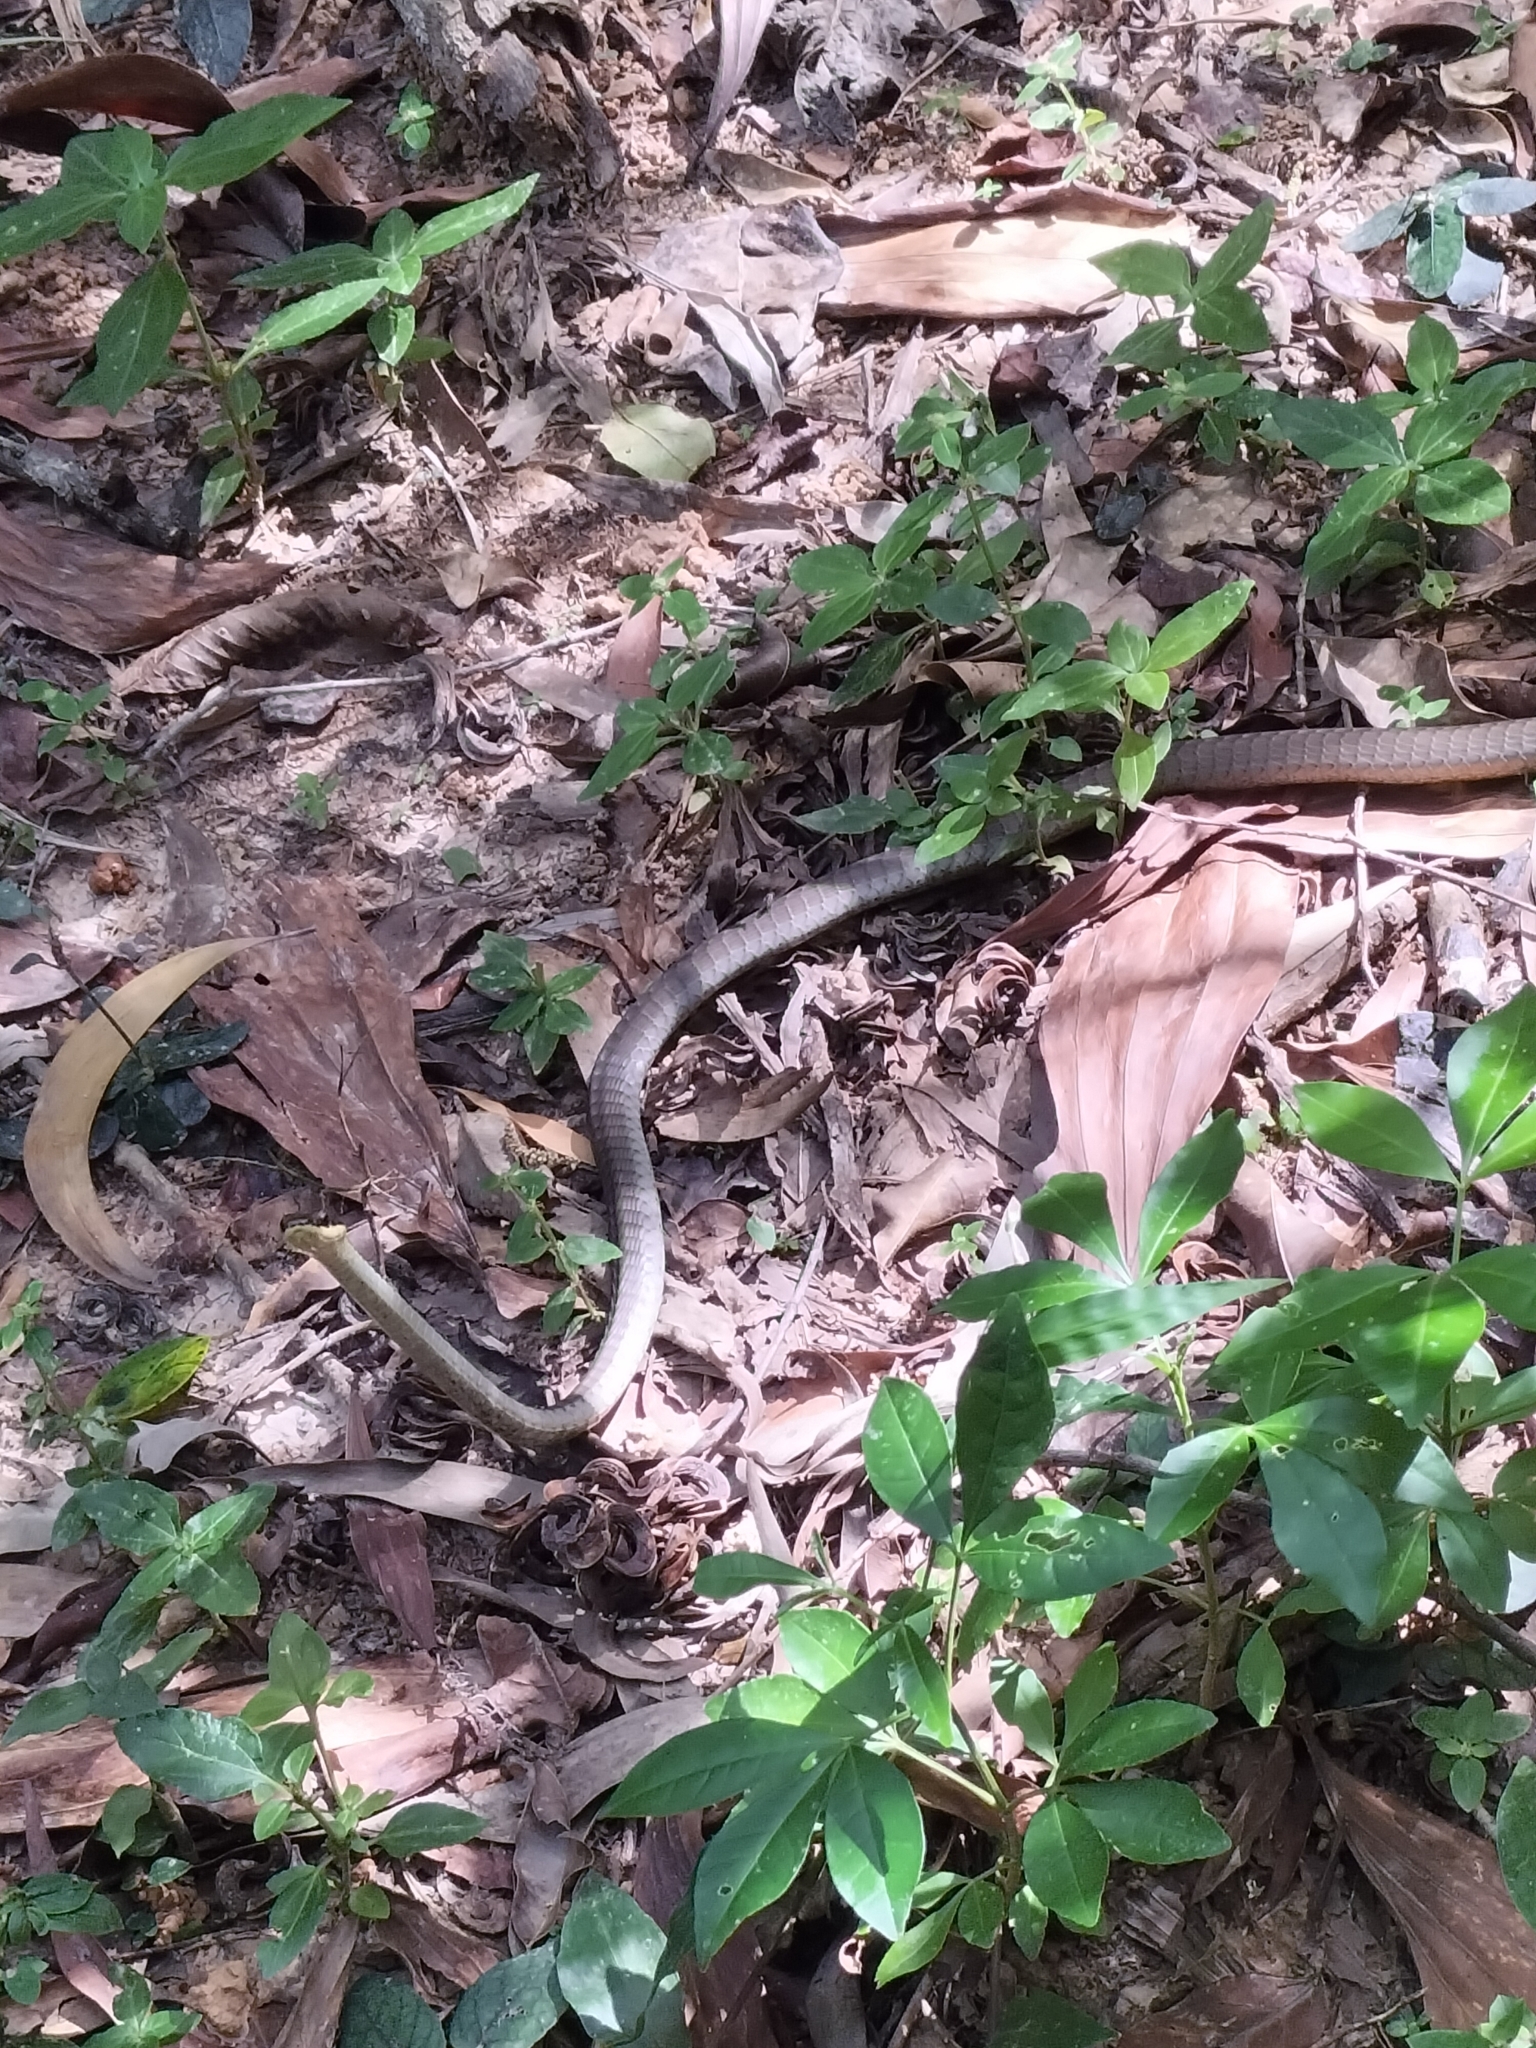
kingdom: Animalia
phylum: Chordata
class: Squamata
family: Colubridae
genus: Dendrelaphis
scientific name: Dendrelaphis calligaster
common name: Green tree snake
